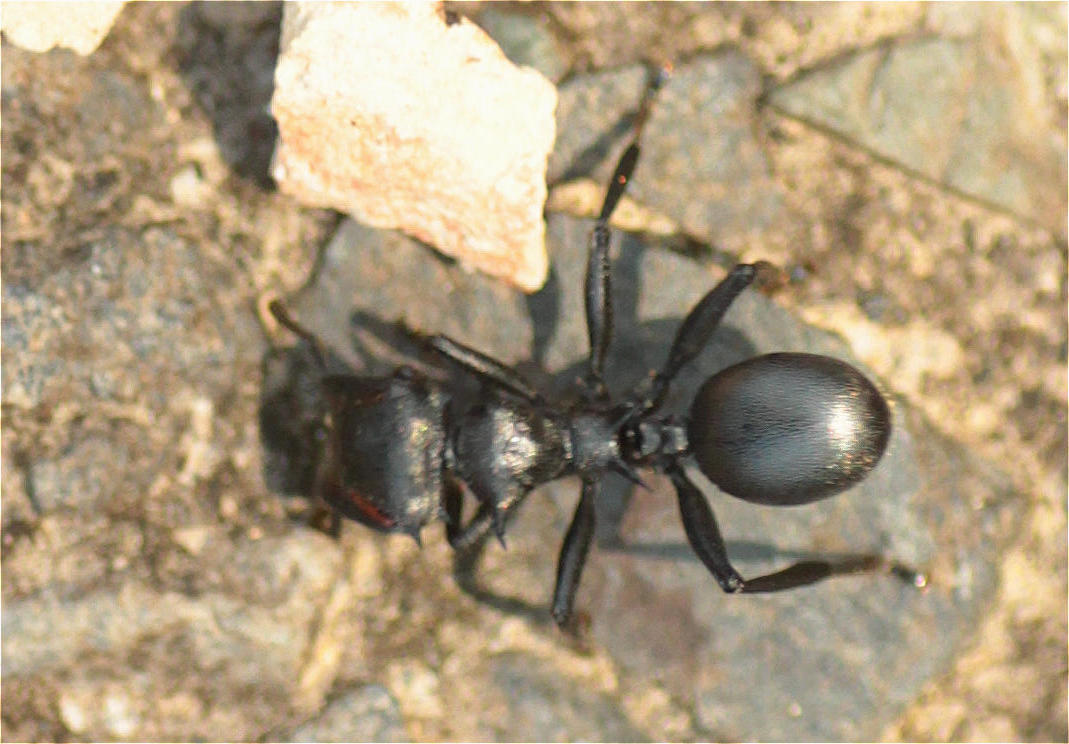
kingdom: Animalia
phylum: Arthropoda
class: Insecta
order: Hymenoptera
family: Formicidae
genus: Cephalotes
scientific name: Cephalotes atratus
